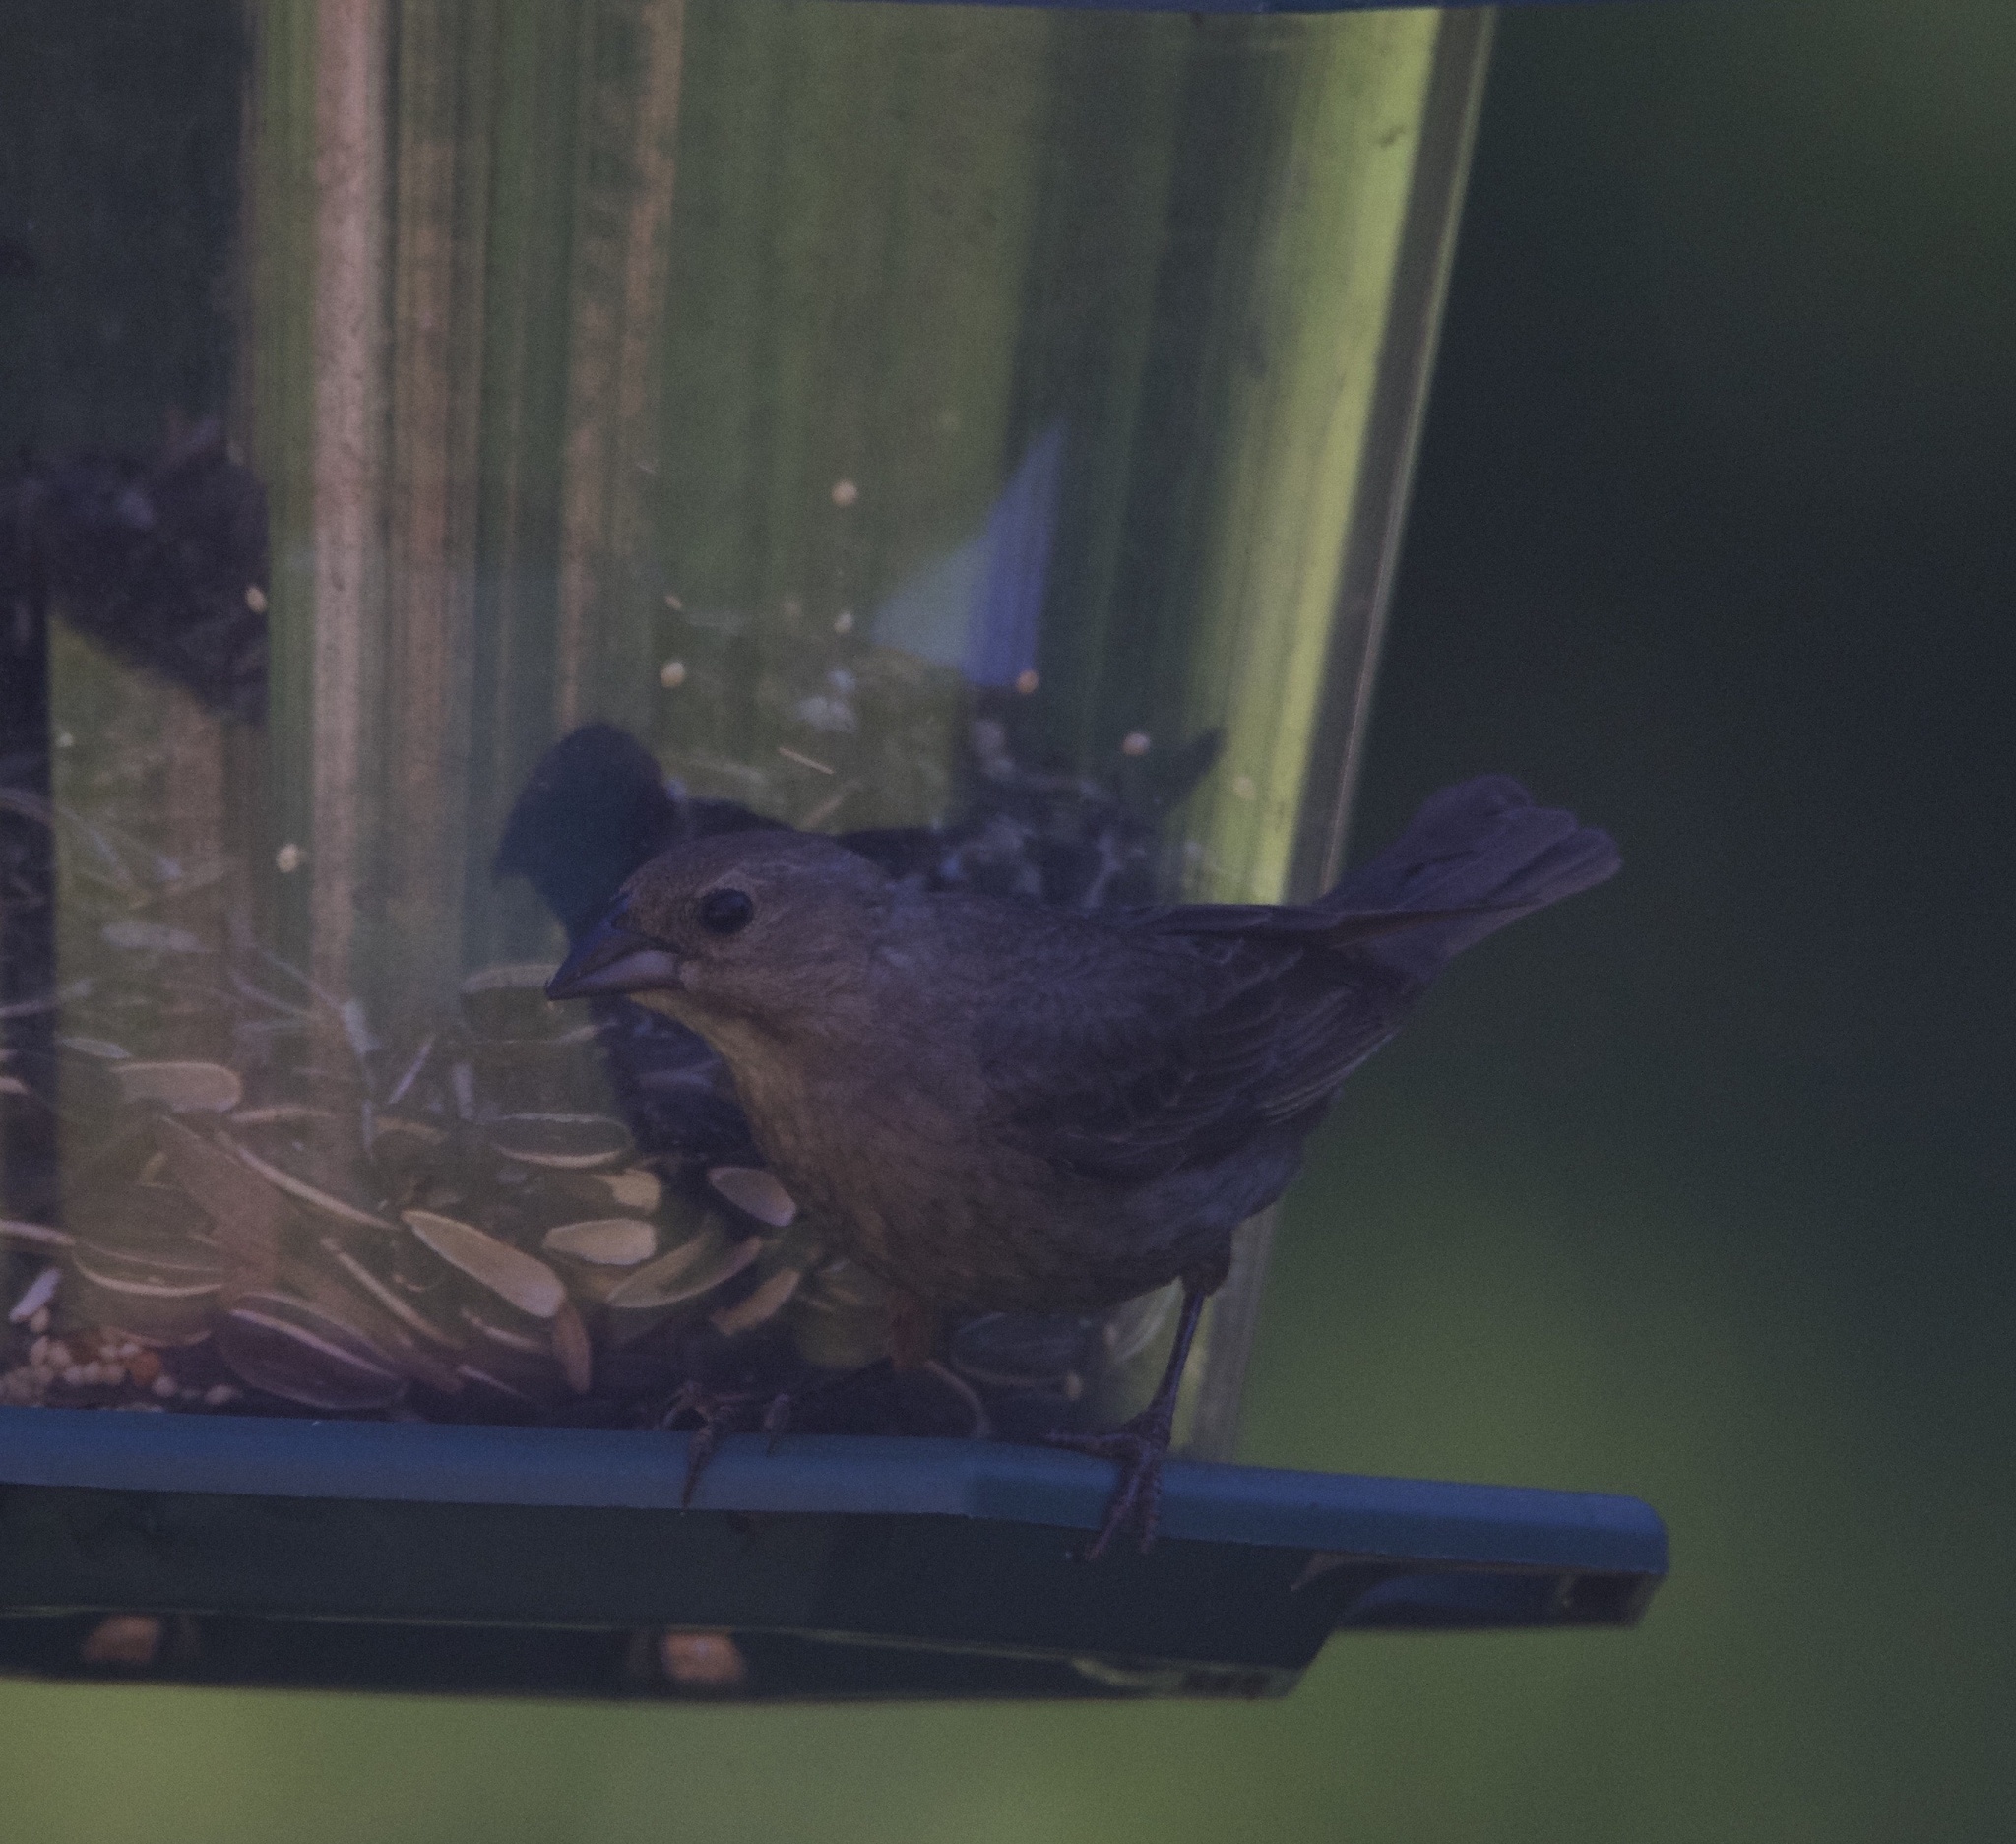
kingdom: Animalia
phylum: Chordata
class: Aves
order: Passeriformes
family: Icteridae
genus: Molothrus
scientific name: Molothrus ater
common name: Brown-headed cowbird
